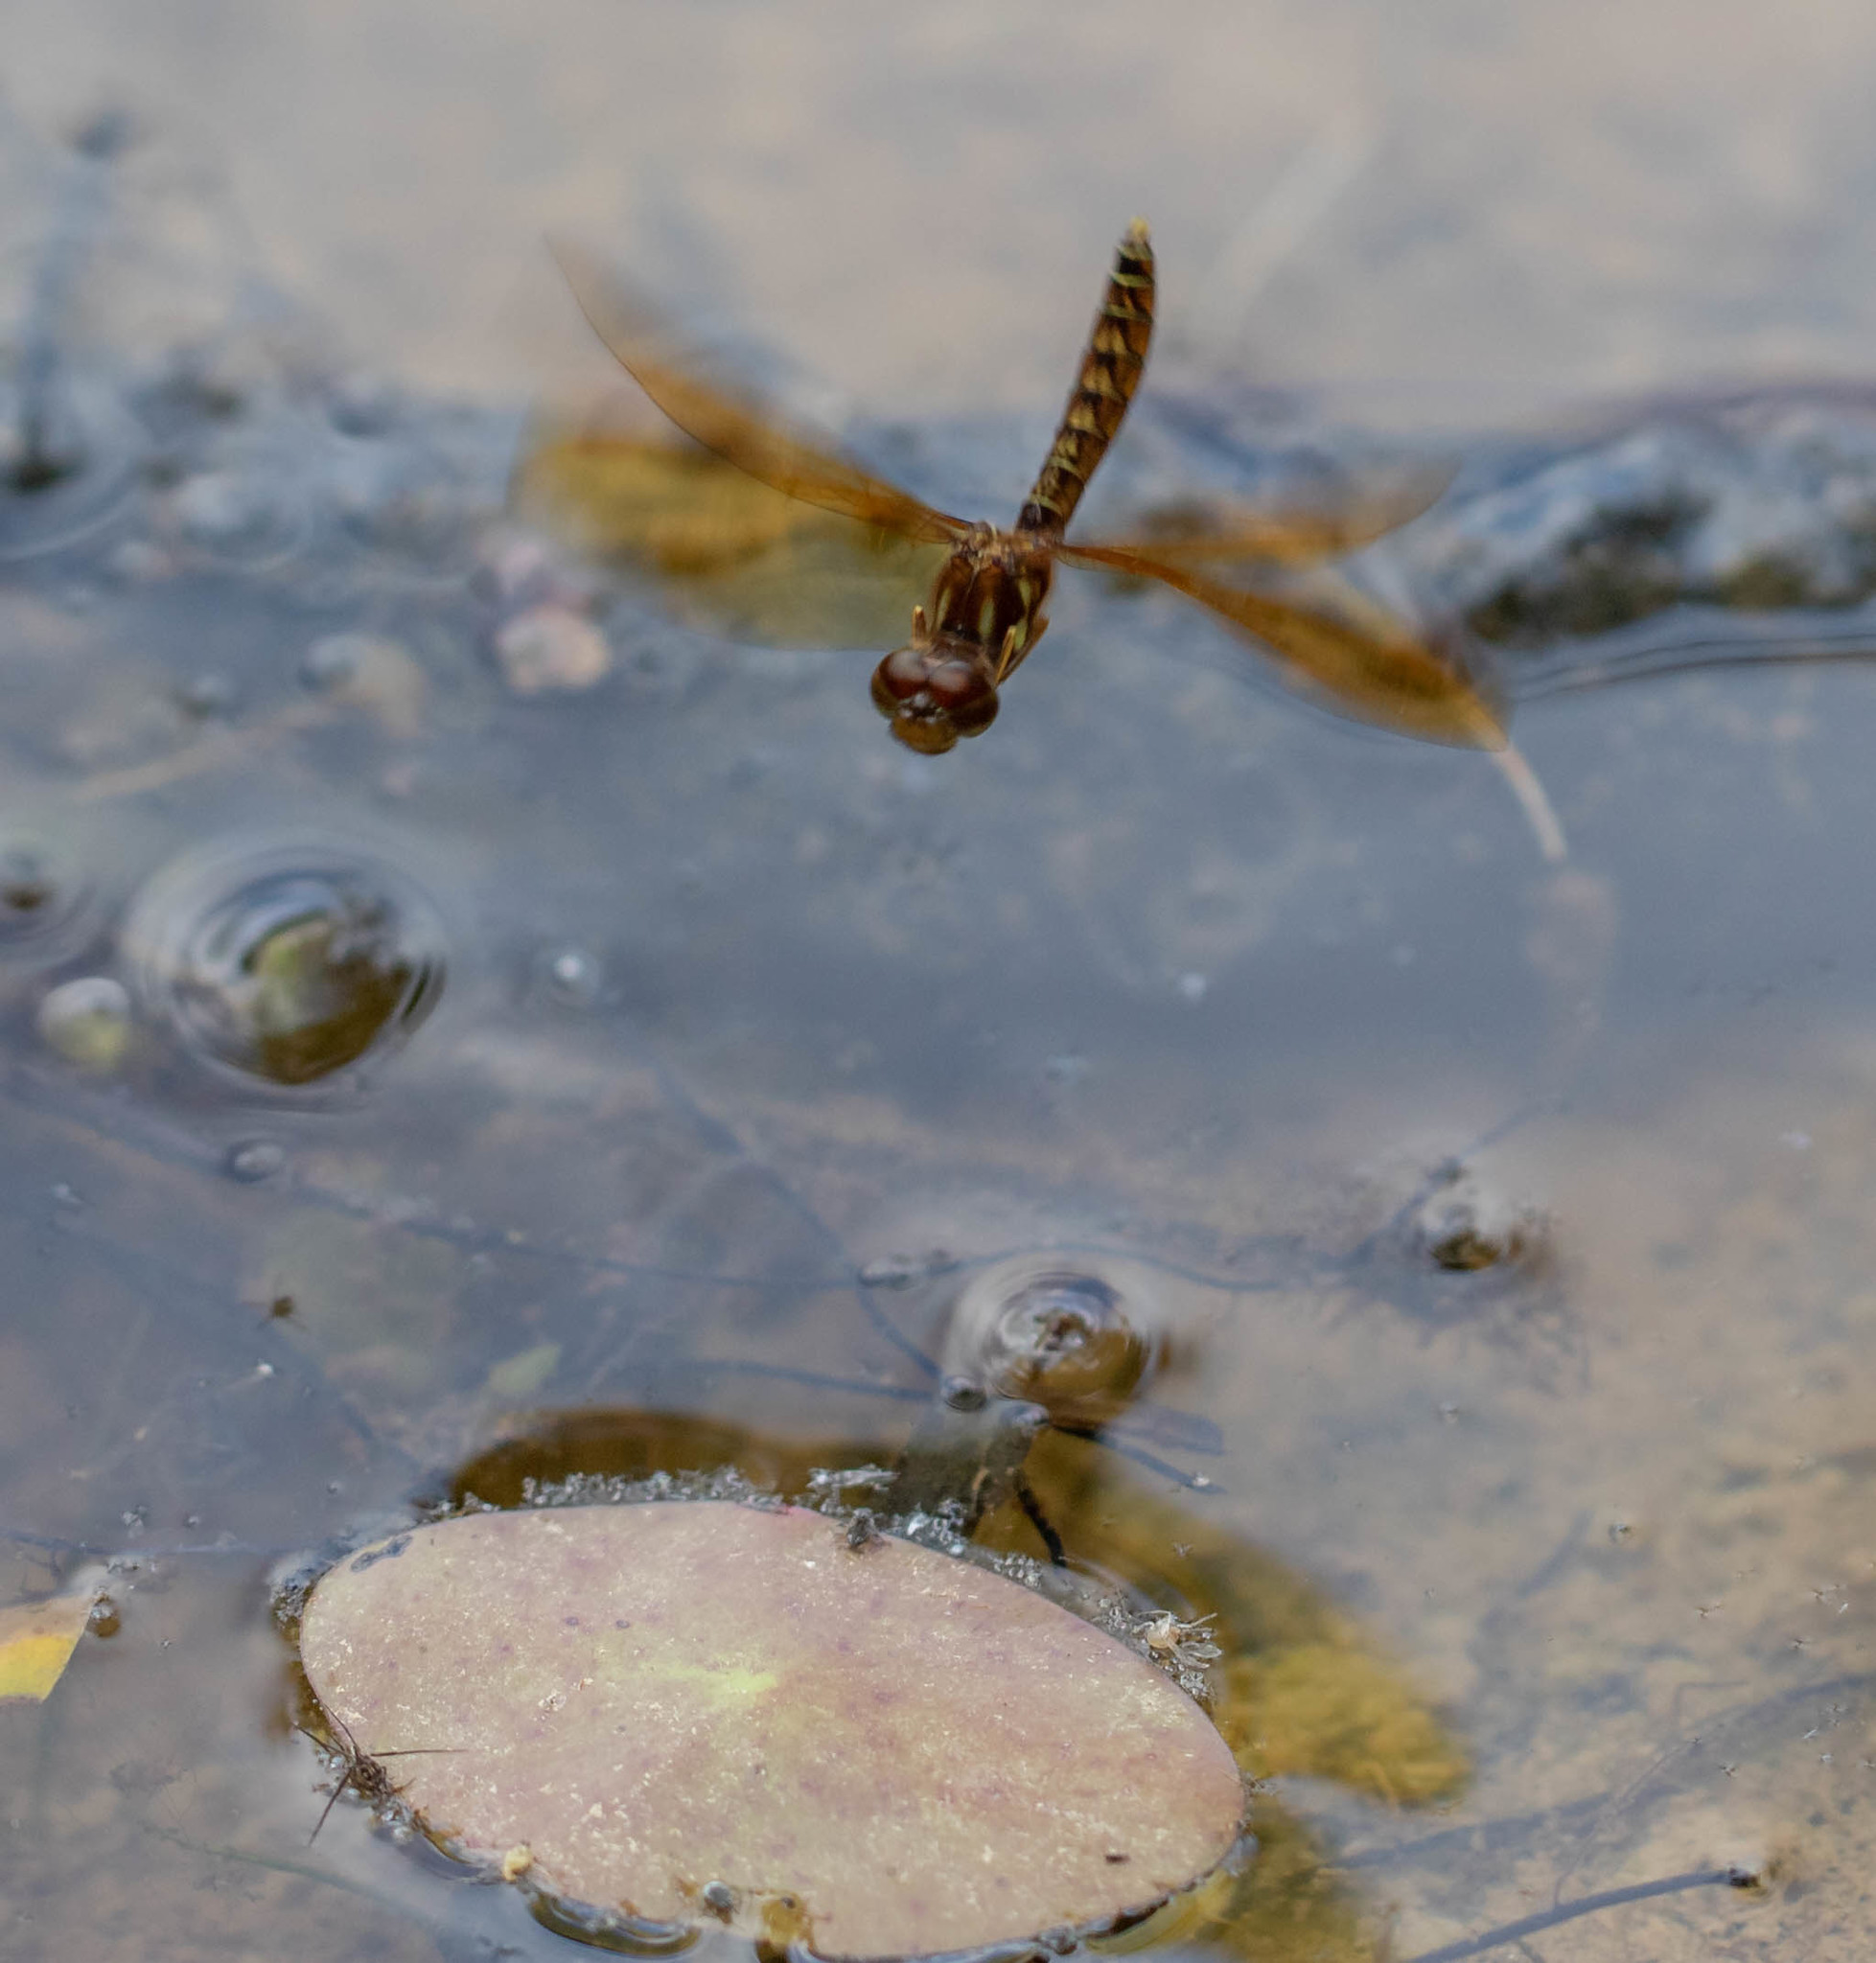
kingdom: Animalia
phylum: Arthropoda
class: Insecta
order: Odonata
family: Libellulidae
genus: Perithemis
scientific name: Perithemis tenera
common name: Eastern amberwing
